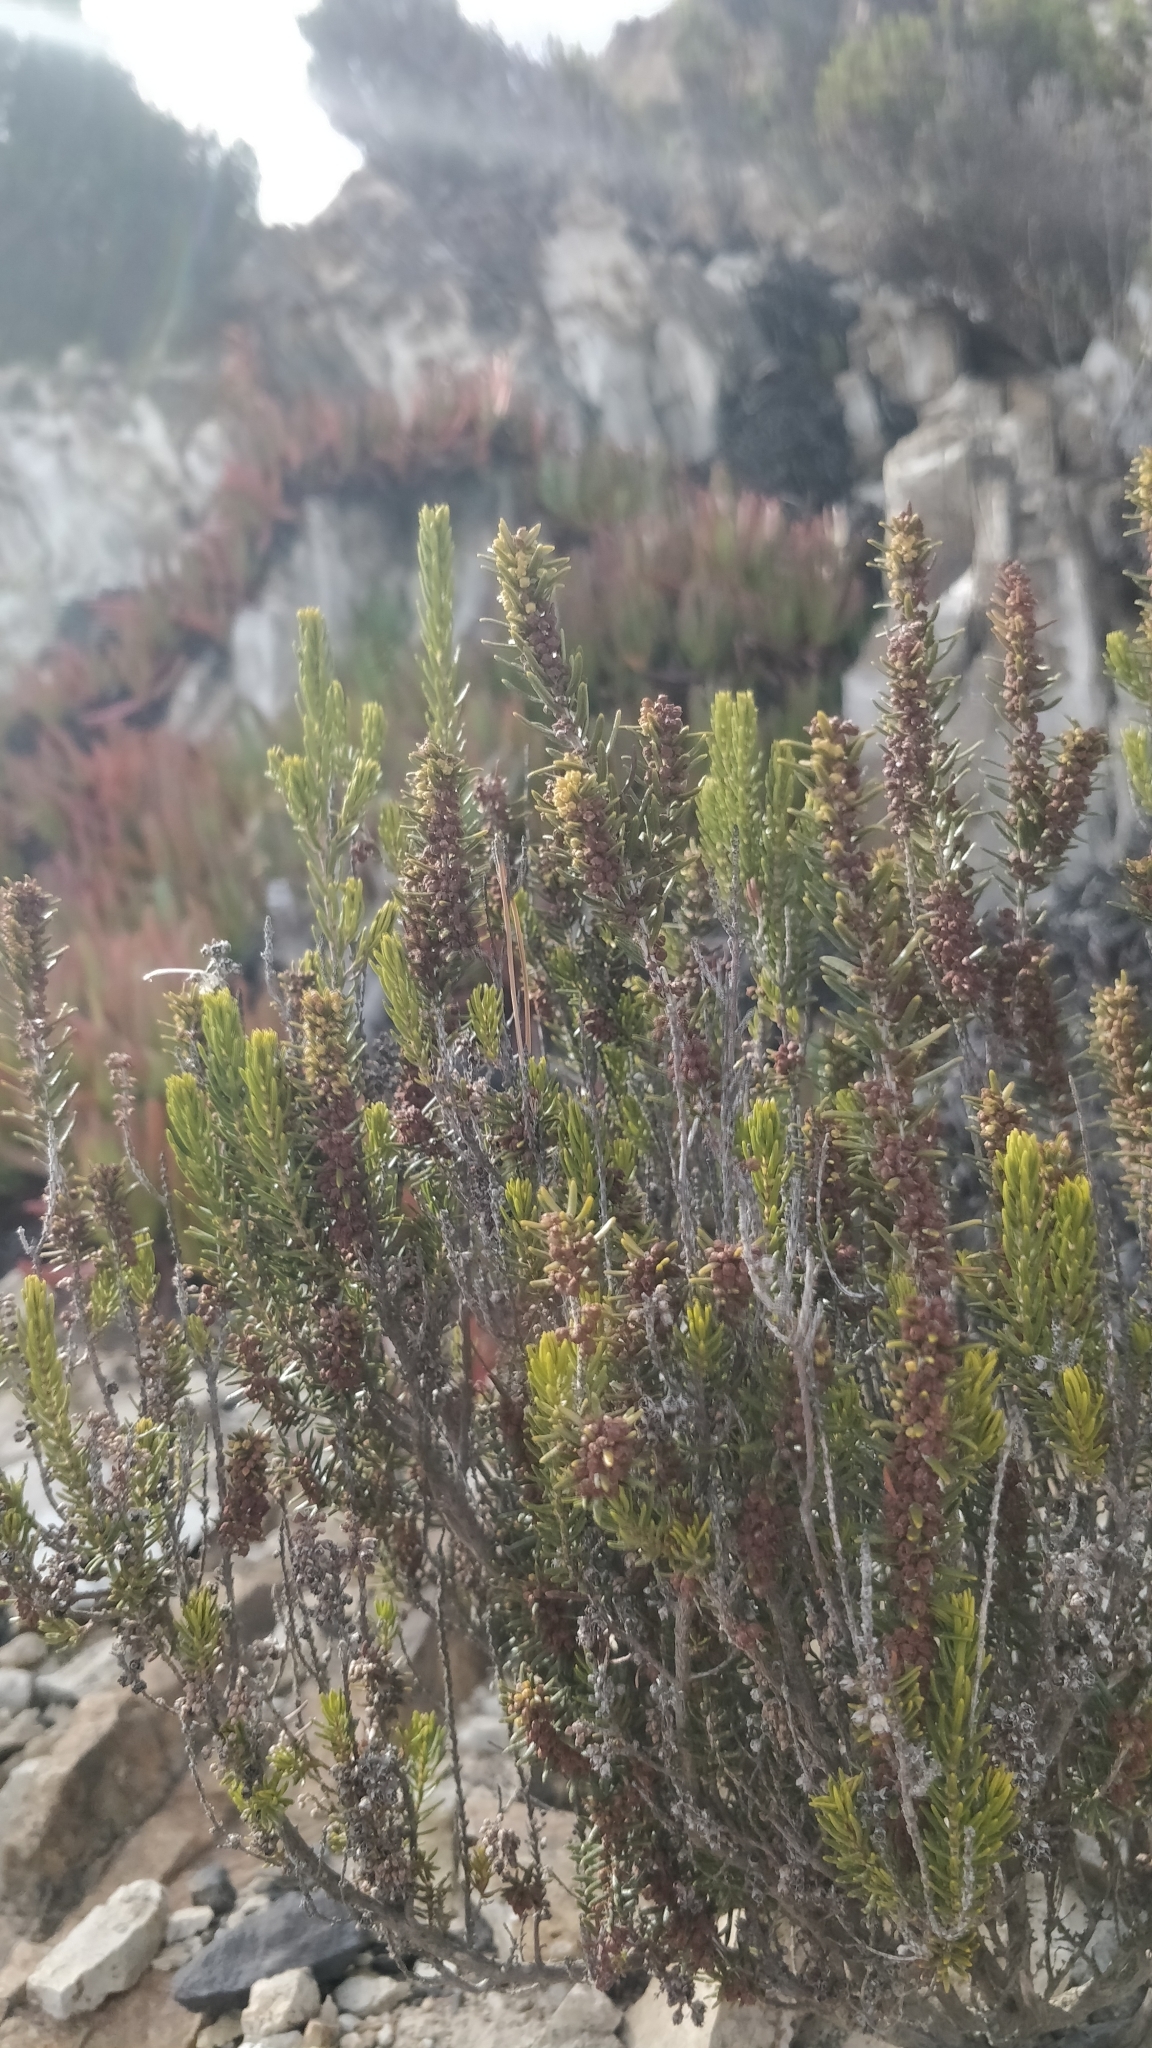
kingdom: Plantae
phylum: Tracheophyta
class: Magnoliopsida
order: Ericales
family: Ericaceae
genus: Erica
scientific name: Erica platycodon
